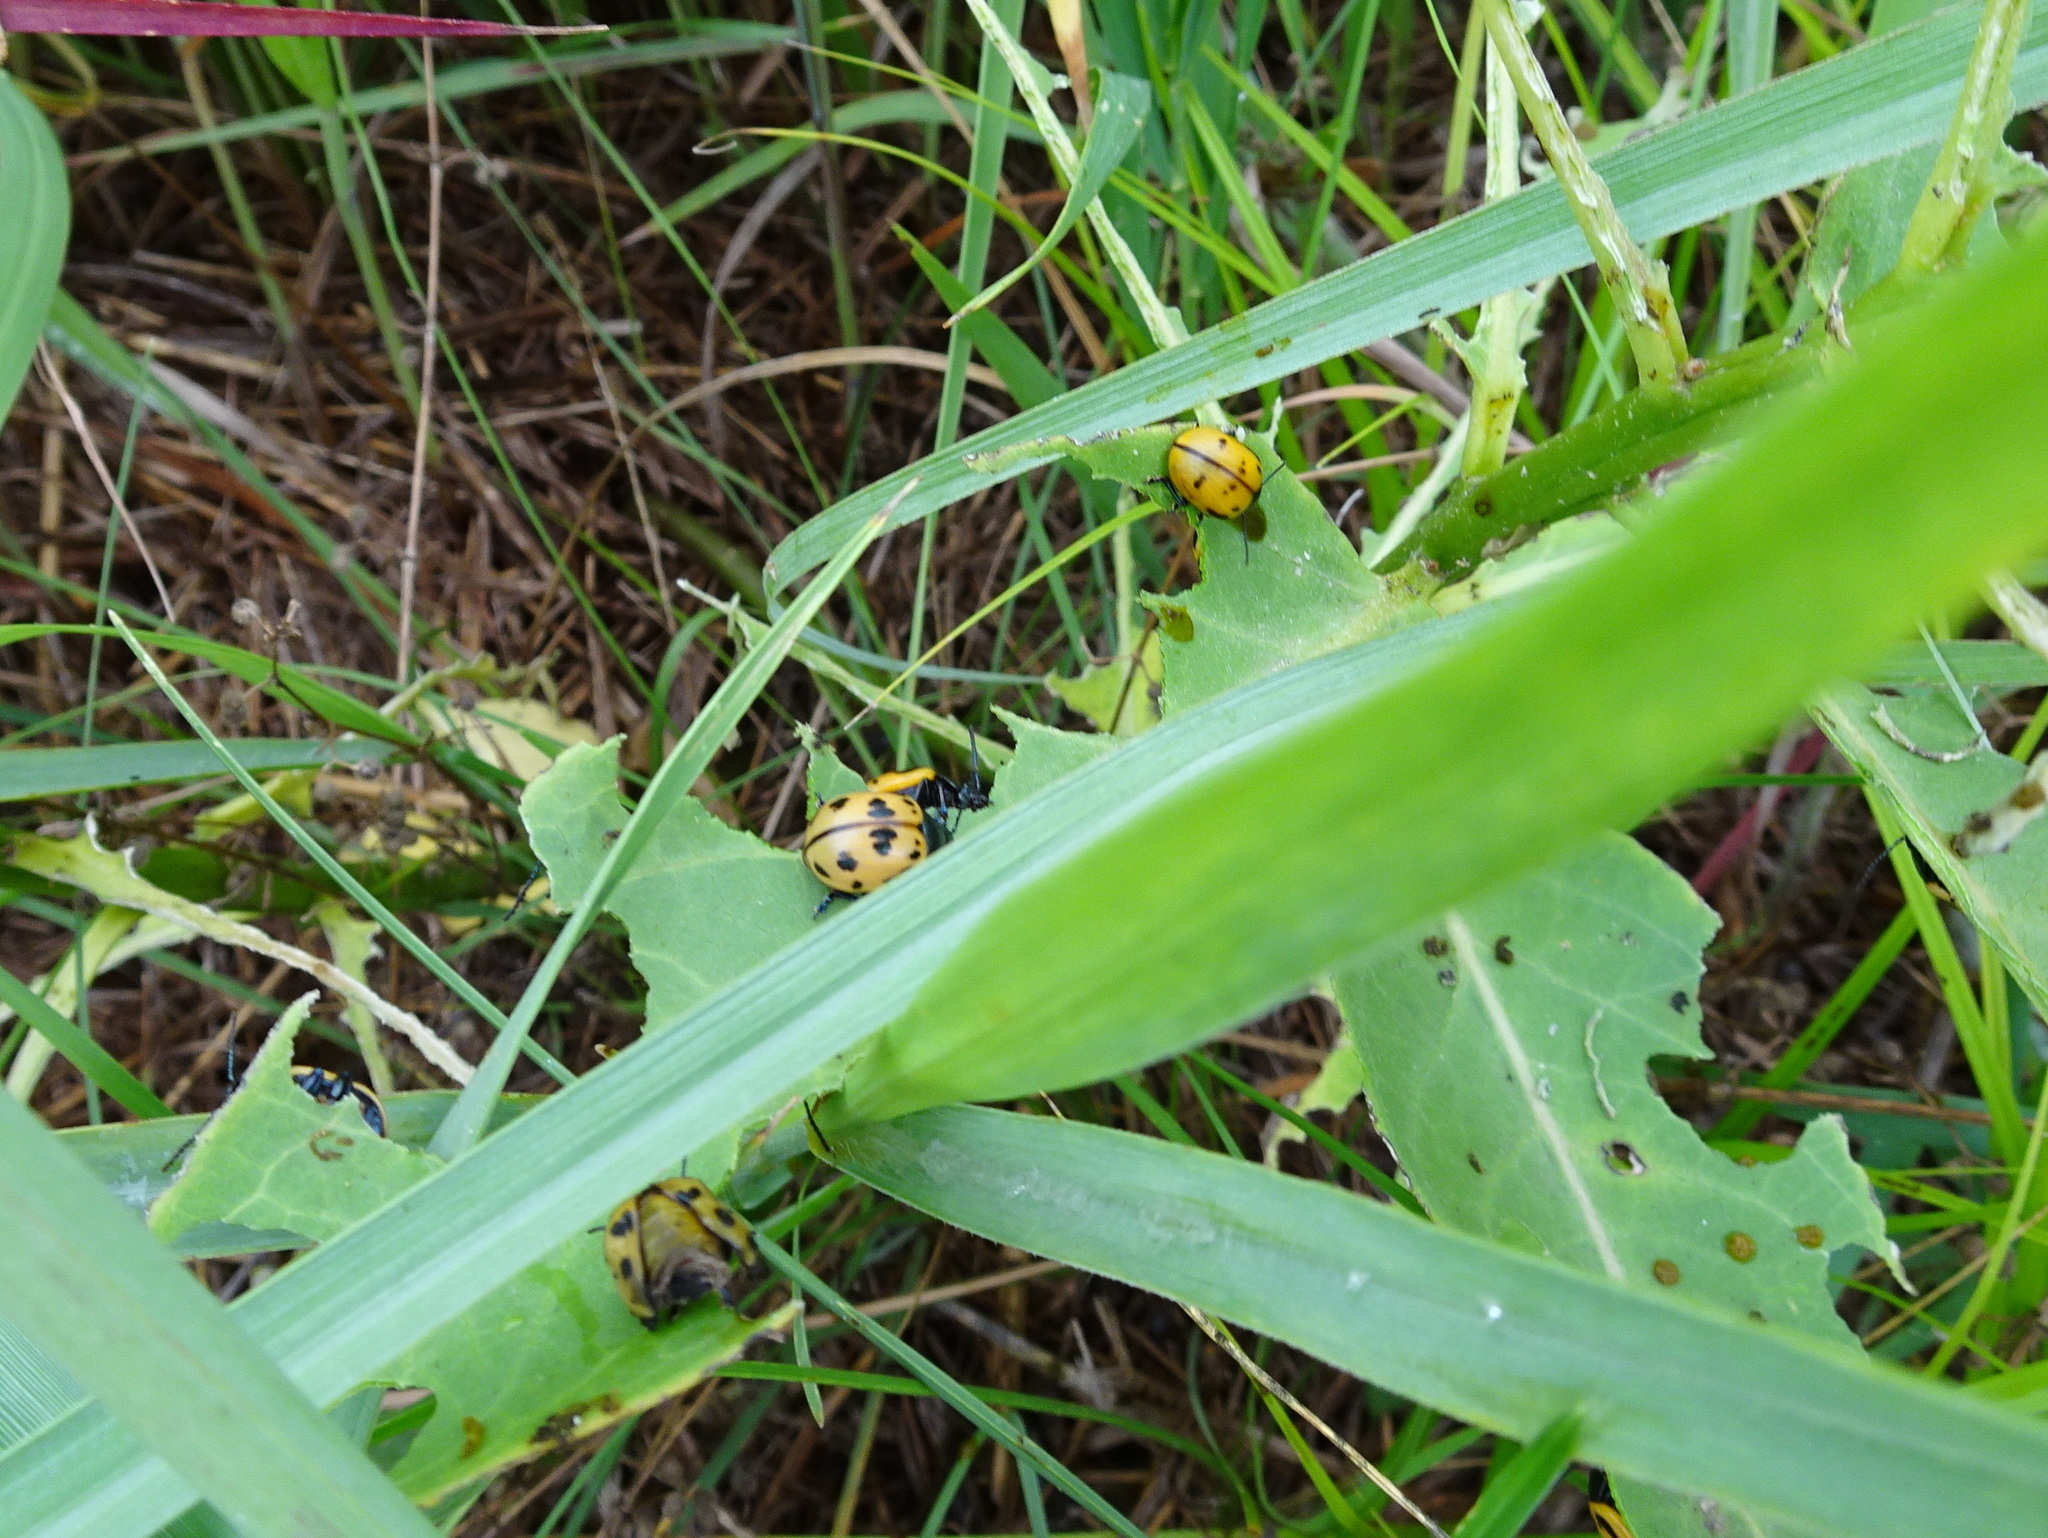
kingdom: Animalia
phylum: Arthropoda
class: Insecta
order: Coleoptera
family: Chrysomelidae
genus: Labidomera
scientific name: Labidomera clivicollis
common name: Swamp milkweed leaf beetle
